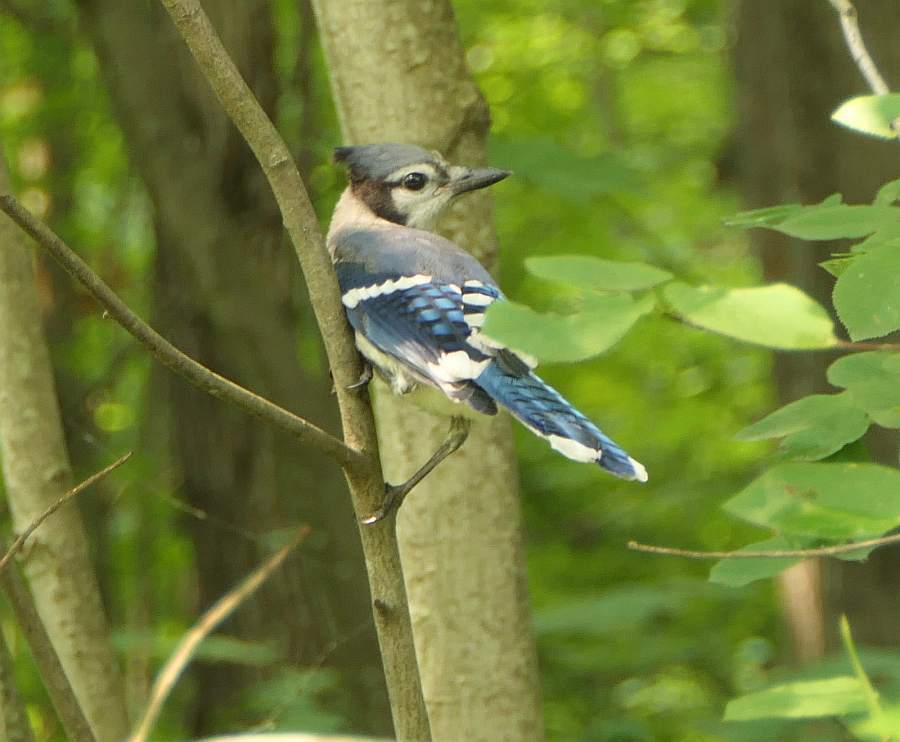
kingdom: Animalia
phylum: Chordata
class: Aves
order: Passeriformes
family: Corvidae
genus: Cyanocitta
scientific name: Cyanocitta cristata
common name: Blue jay
